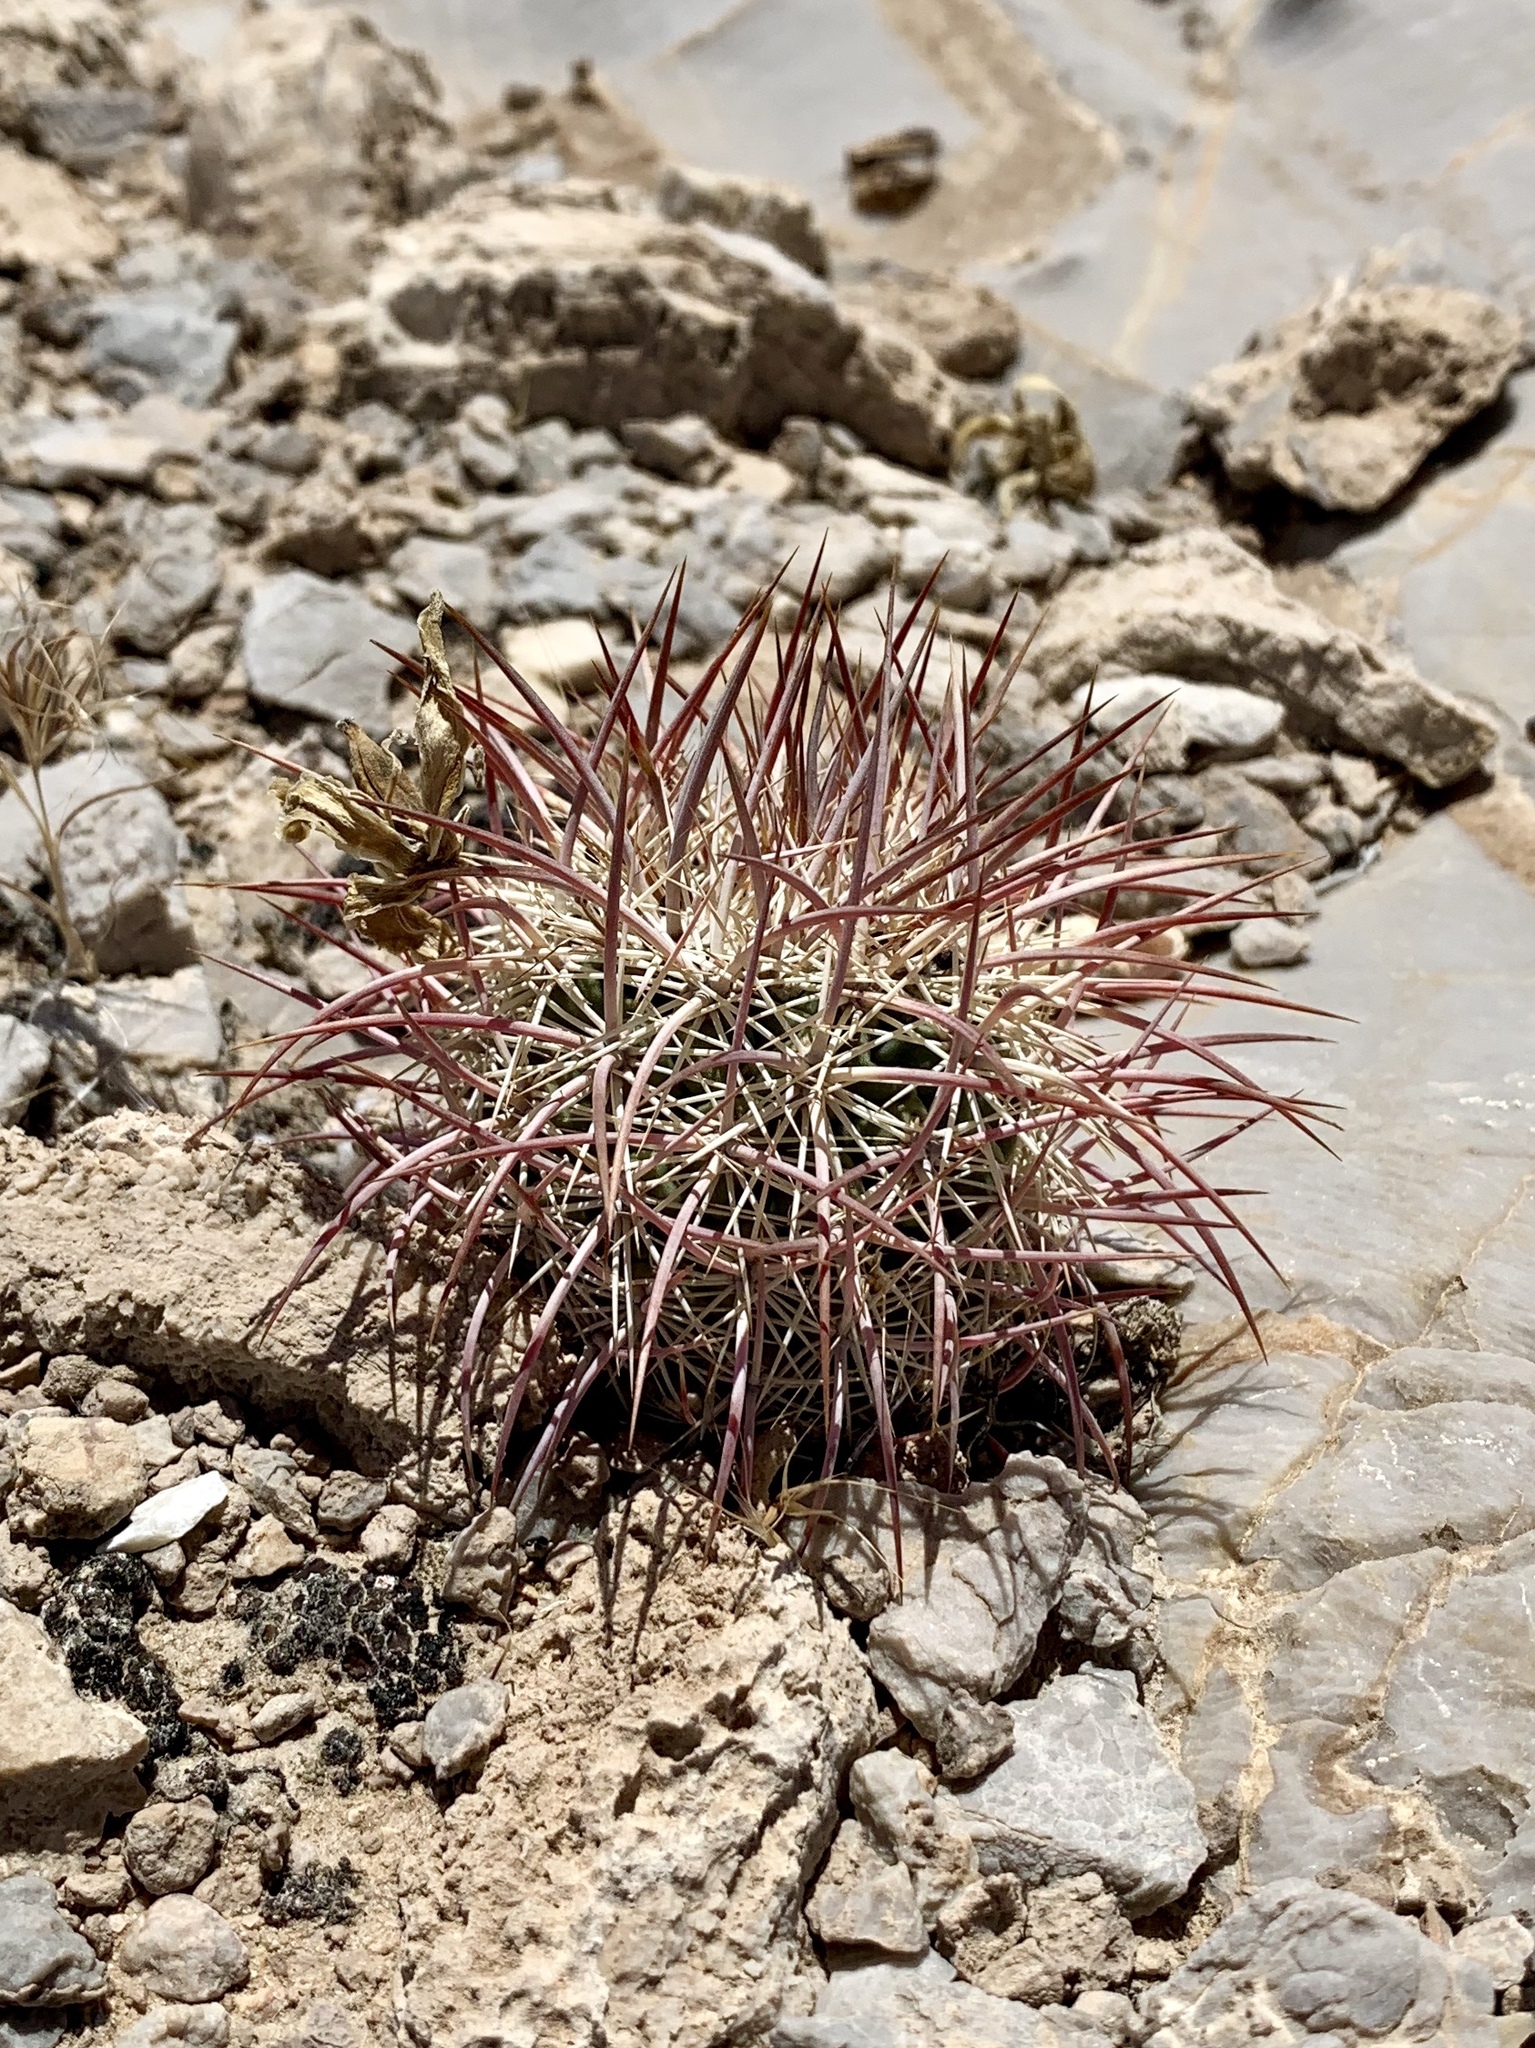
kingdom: Plantae
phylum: Tracheophyta
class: Magnoliopsida
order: Caryophyllales
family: Cactaceae
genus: Sclerocactus
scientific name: Sclerocactus johnsonii
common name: Eight-spine fishhook cactus
